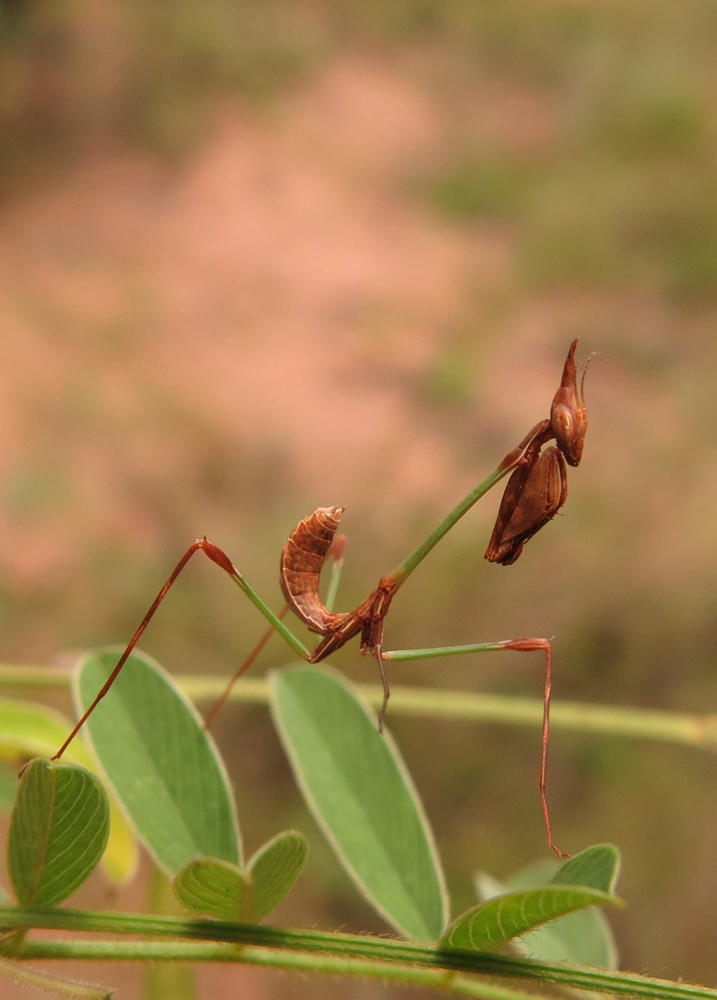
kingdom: Animalia
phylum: Arthropoda
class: Insecta
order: Mantodea
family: Empusidae
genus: Idolomorpha
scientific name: Idolomorpha dentifrons
